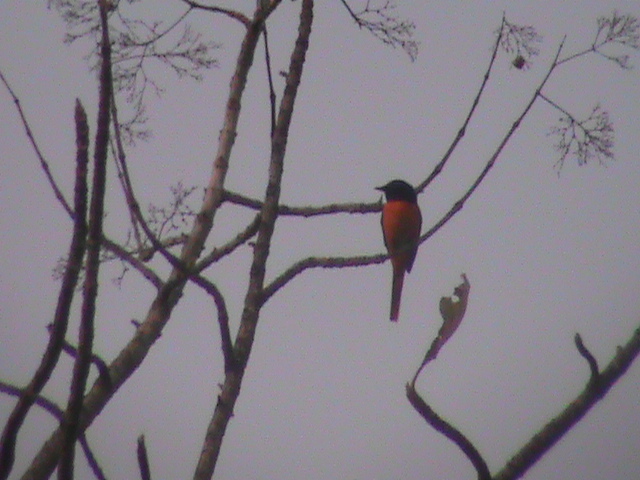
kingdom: Animalia
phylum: Chordata
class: Aves
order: Passeriformes
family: Campephagidae
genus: Pericrocotus
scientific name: Pericrocotus flammeus
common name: Orange minivet
